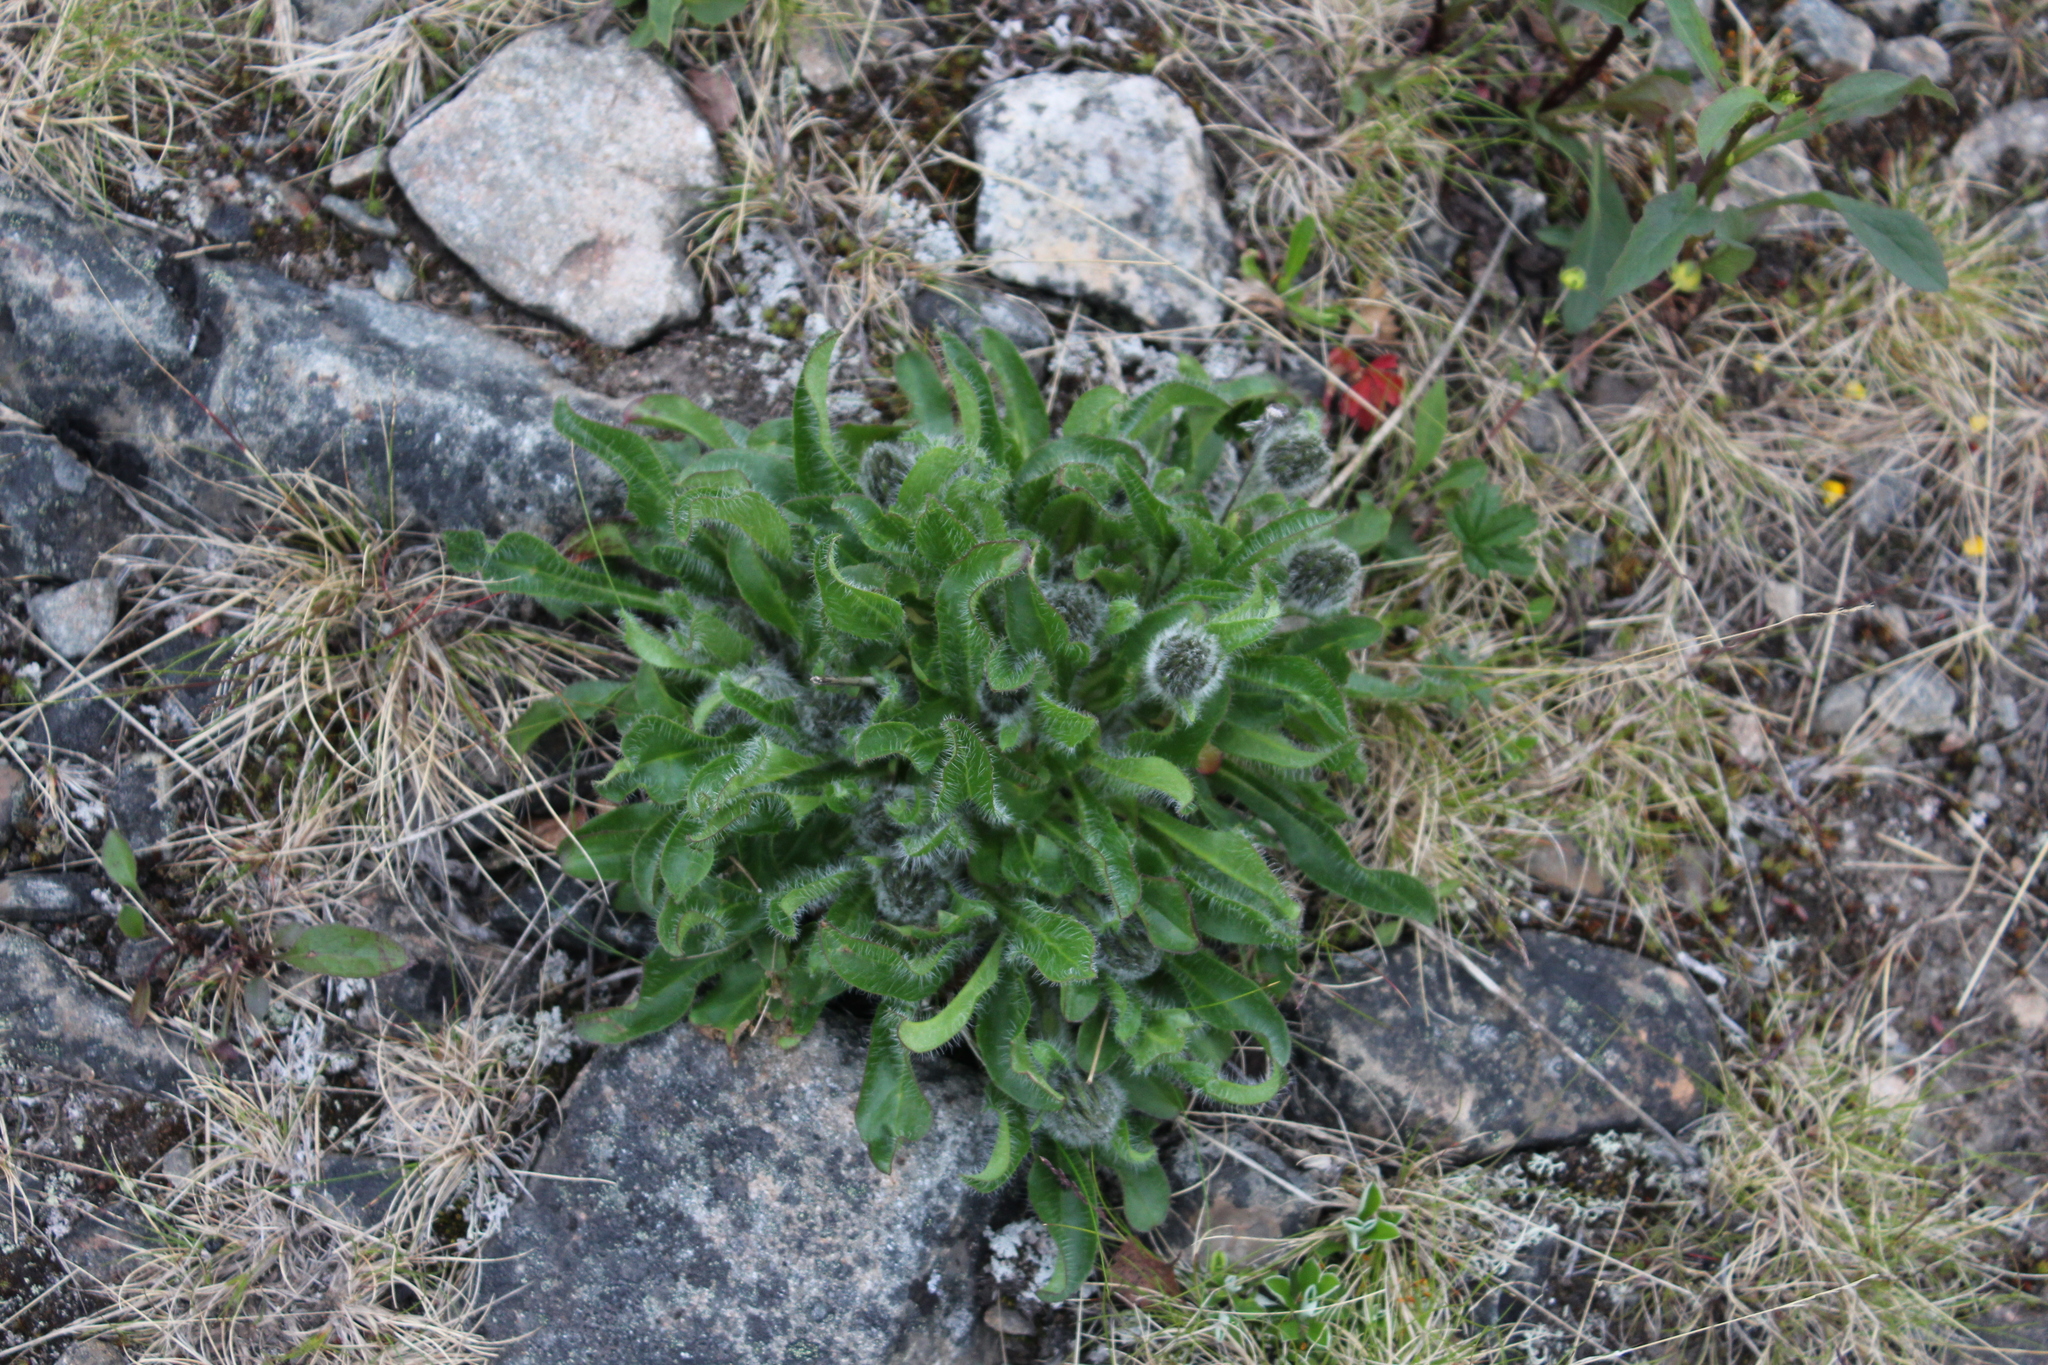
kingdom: Plantae
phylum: Tracheophyta
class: Magnoliopsida
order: Asterales
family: Asteraceae
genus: Hieracium
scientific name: Hieracium alpinum
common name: Alpine hawkweed
